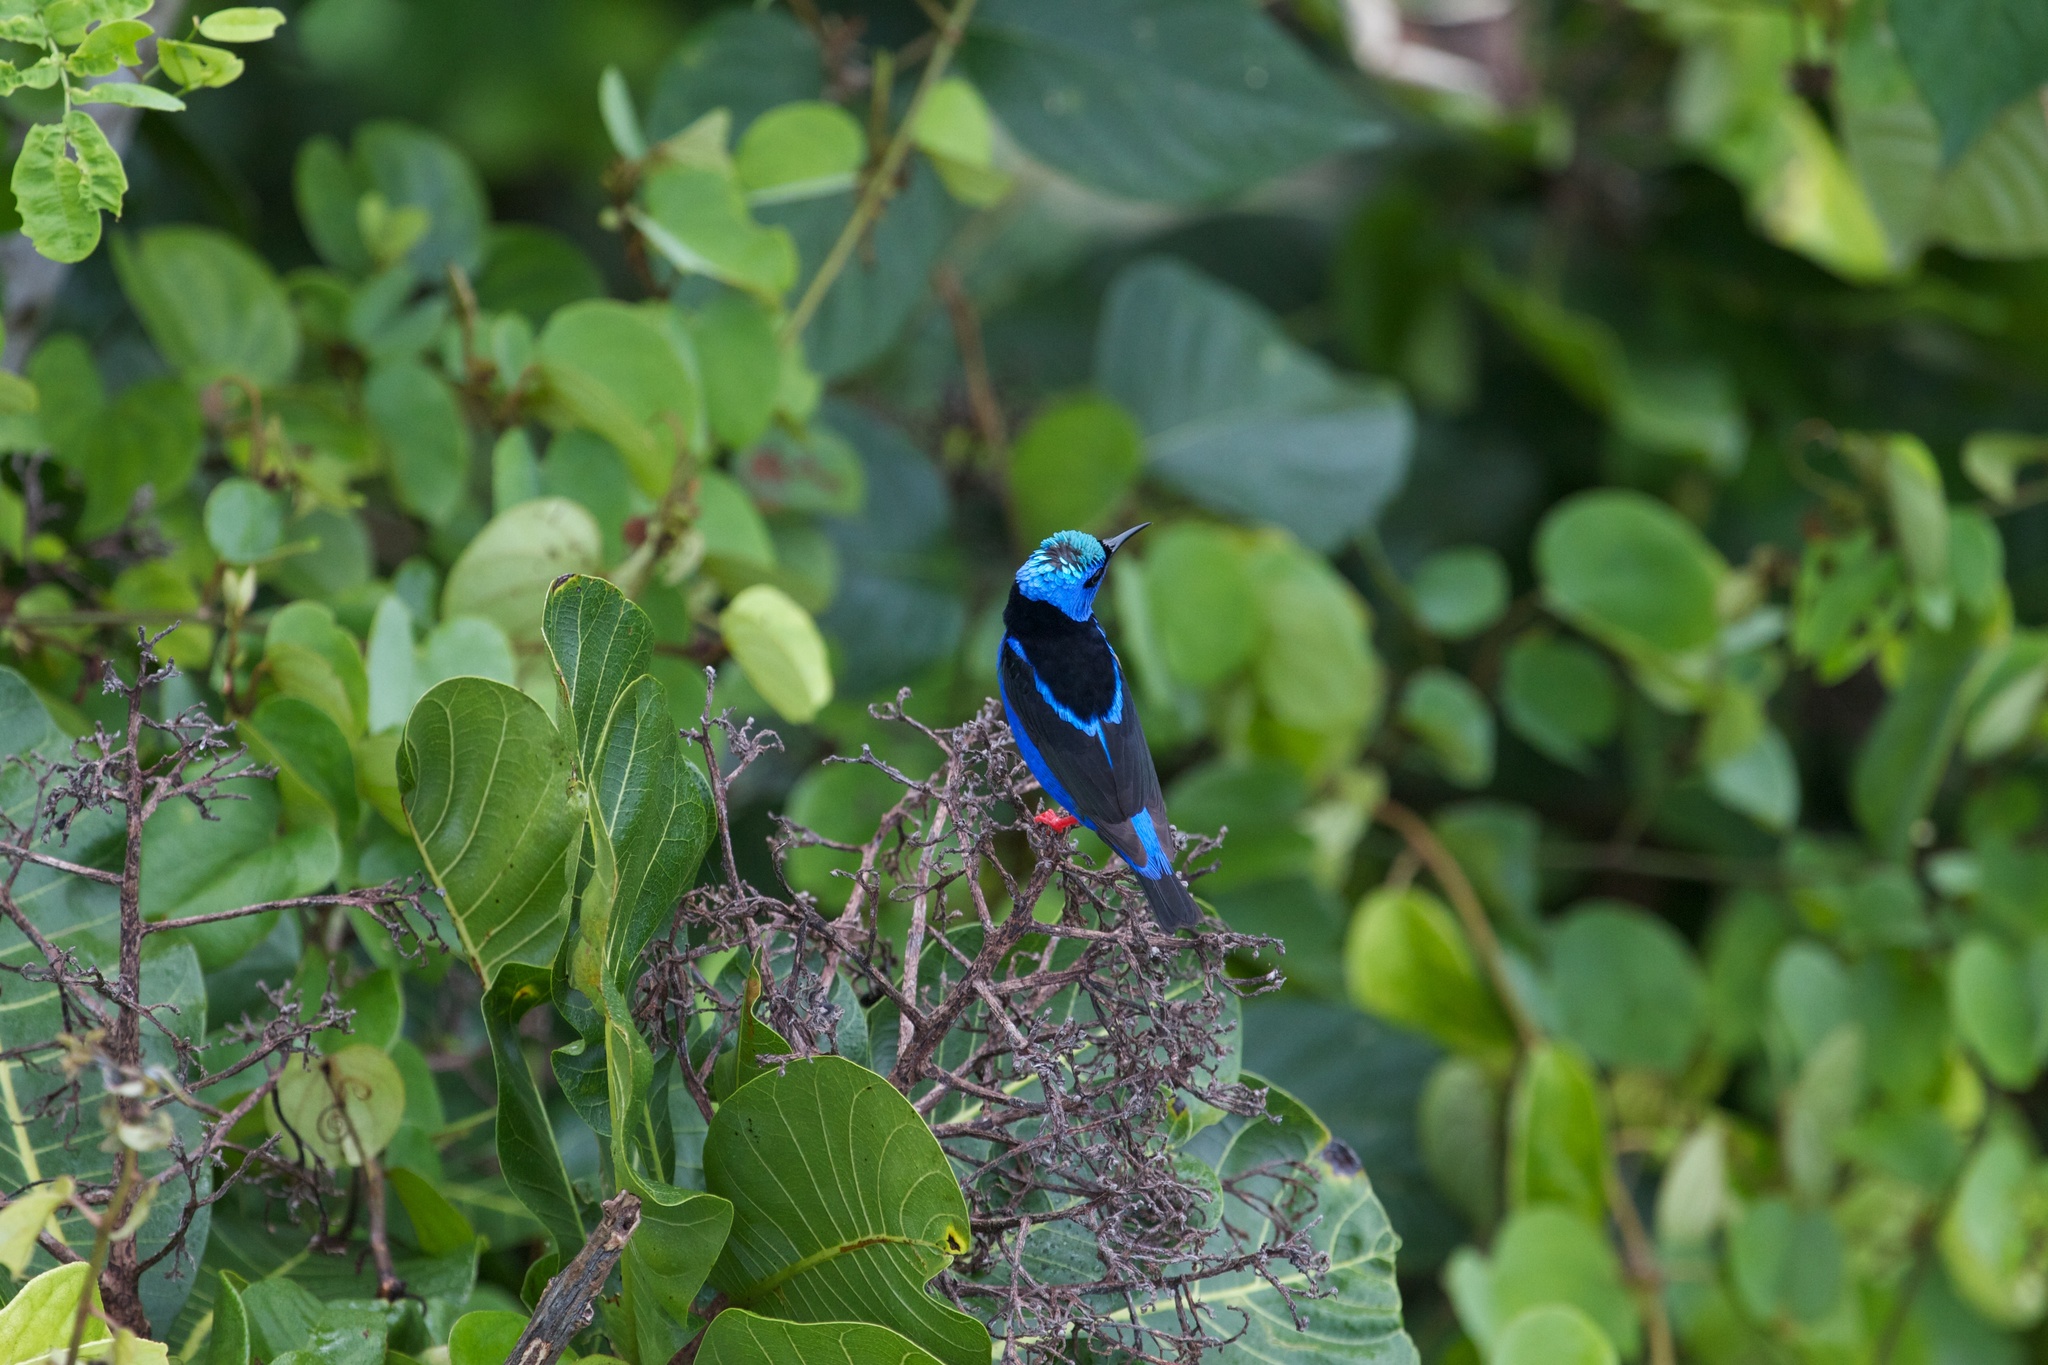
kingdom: Animalia
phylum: Chordata
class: Aves
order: Passeriformes
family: Thraupidae
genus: Cyanerpes
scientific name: Cyanerpes cyaneus
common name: Red-legged honeycreeper
